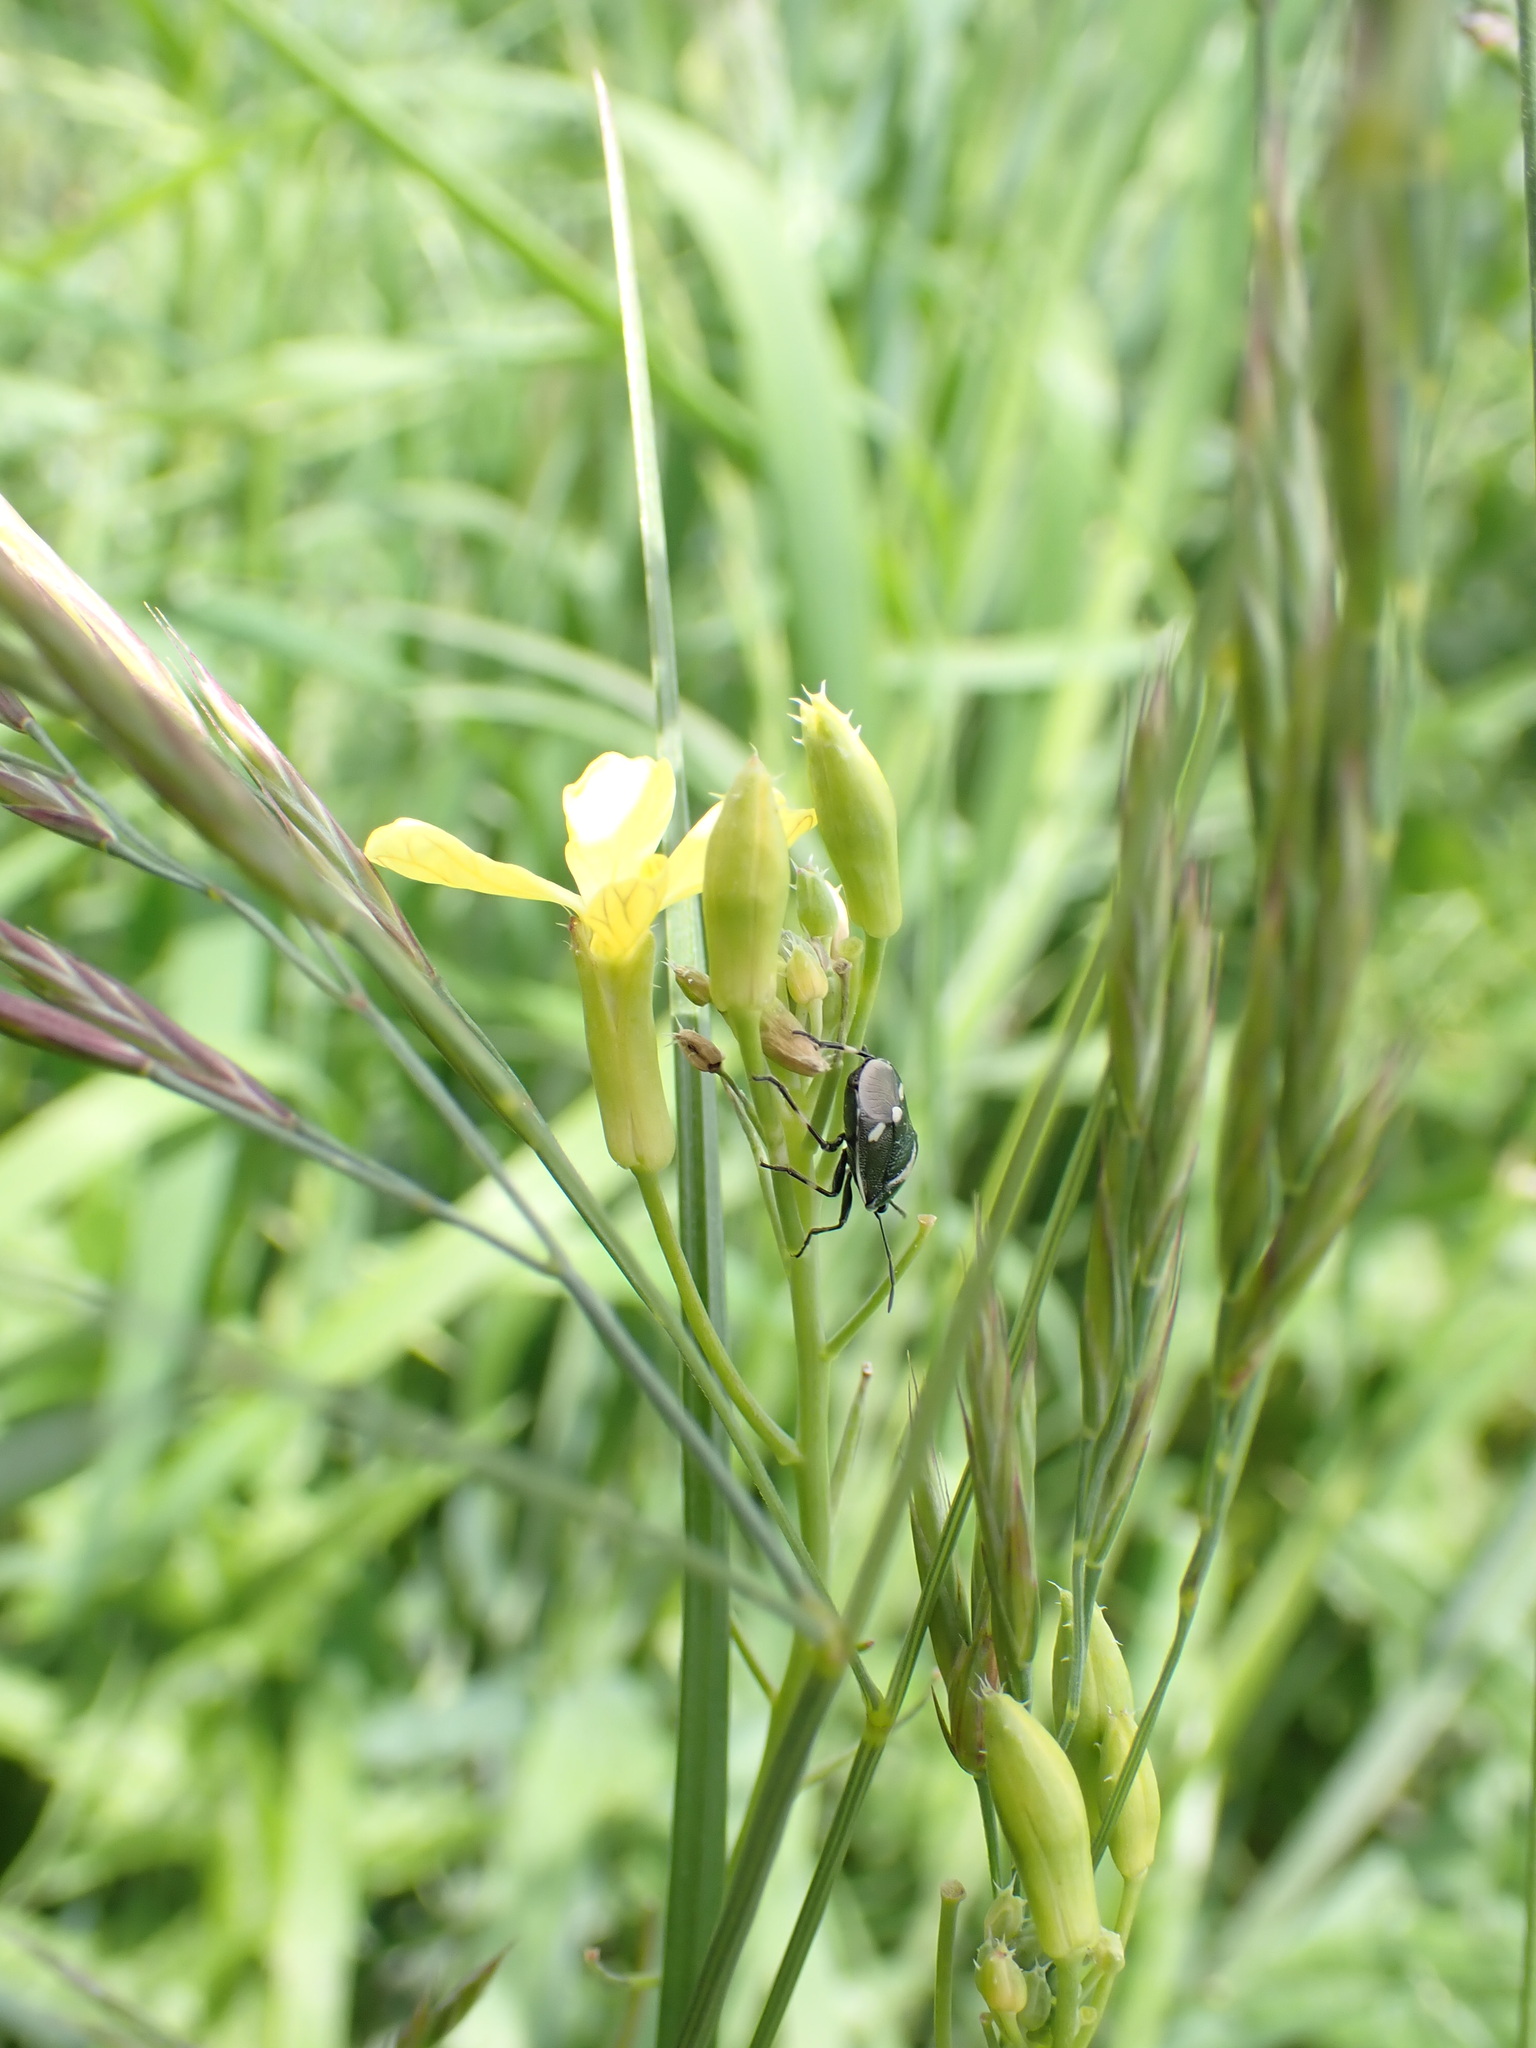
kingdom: Animalia
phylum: Arthropoda
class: Insecta
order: Hemiptera
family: Pentatomidae
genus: Eurydema
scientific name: Eurydema oleracea
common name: Cabbage bug
